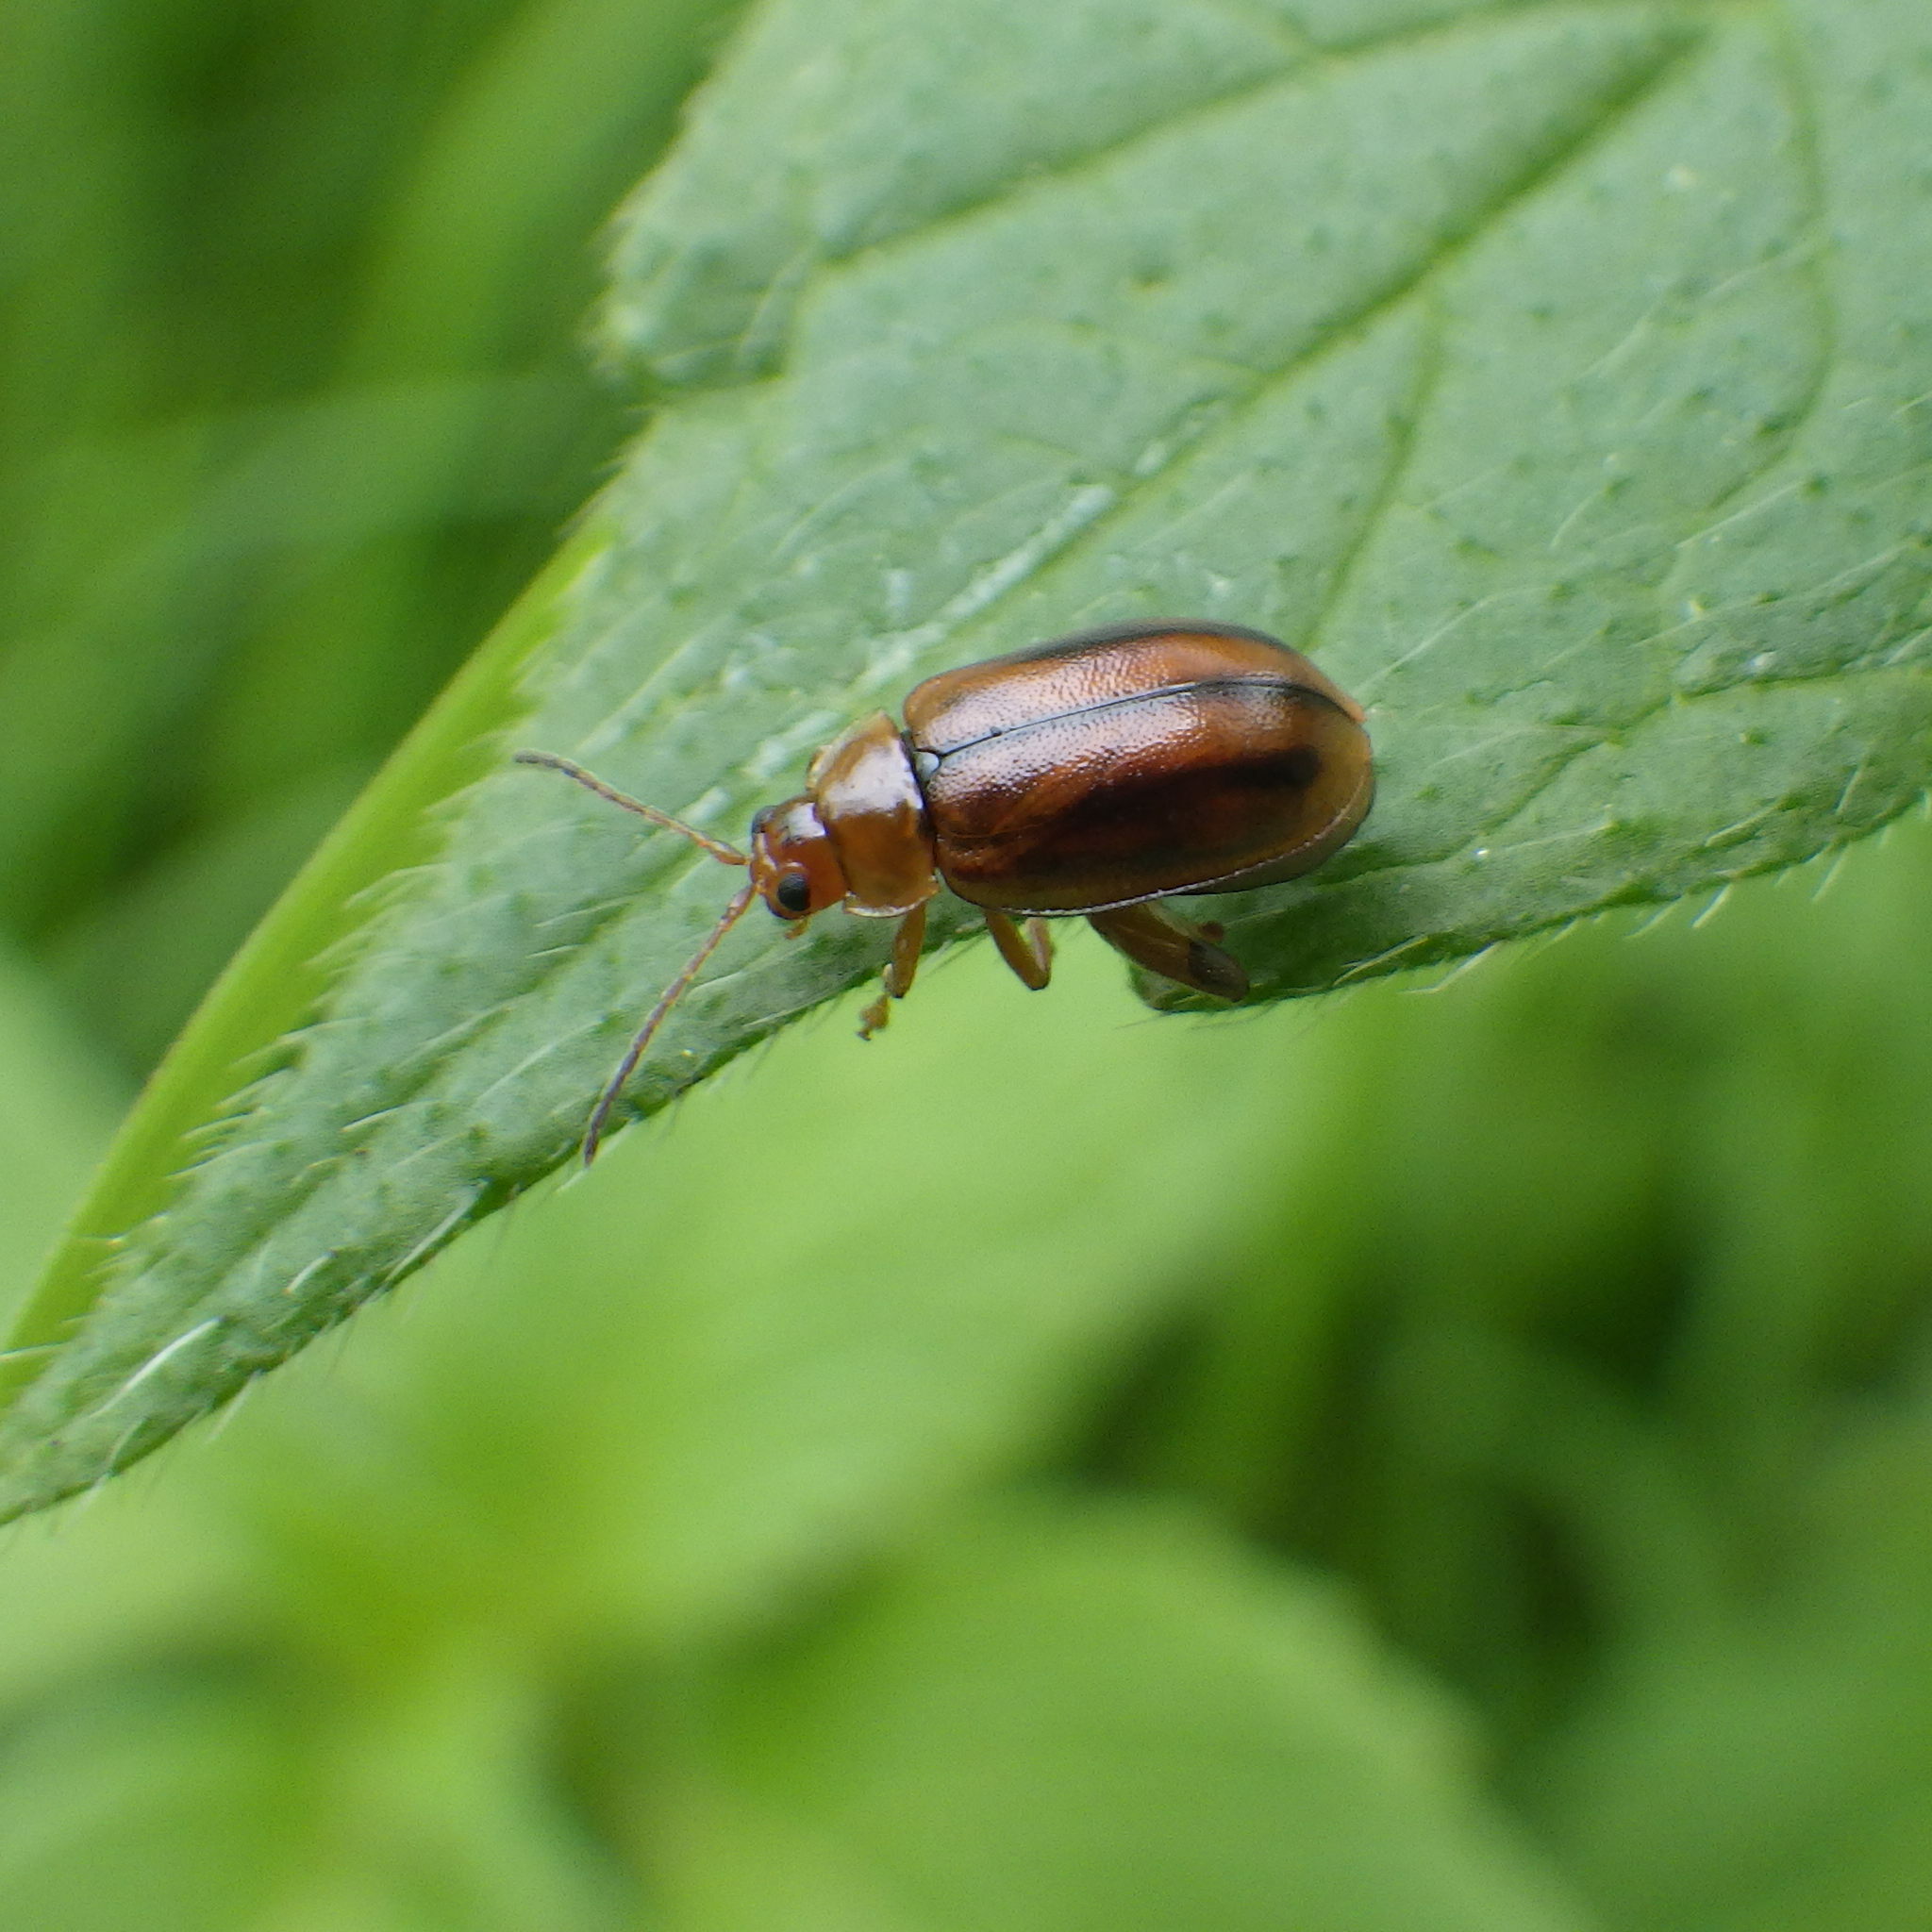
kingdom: Animalia
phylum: Arthropoda
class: Insecta
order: Coleoptera
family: Chrysomelidae
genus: Capraita
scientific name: Capraita subvittata
